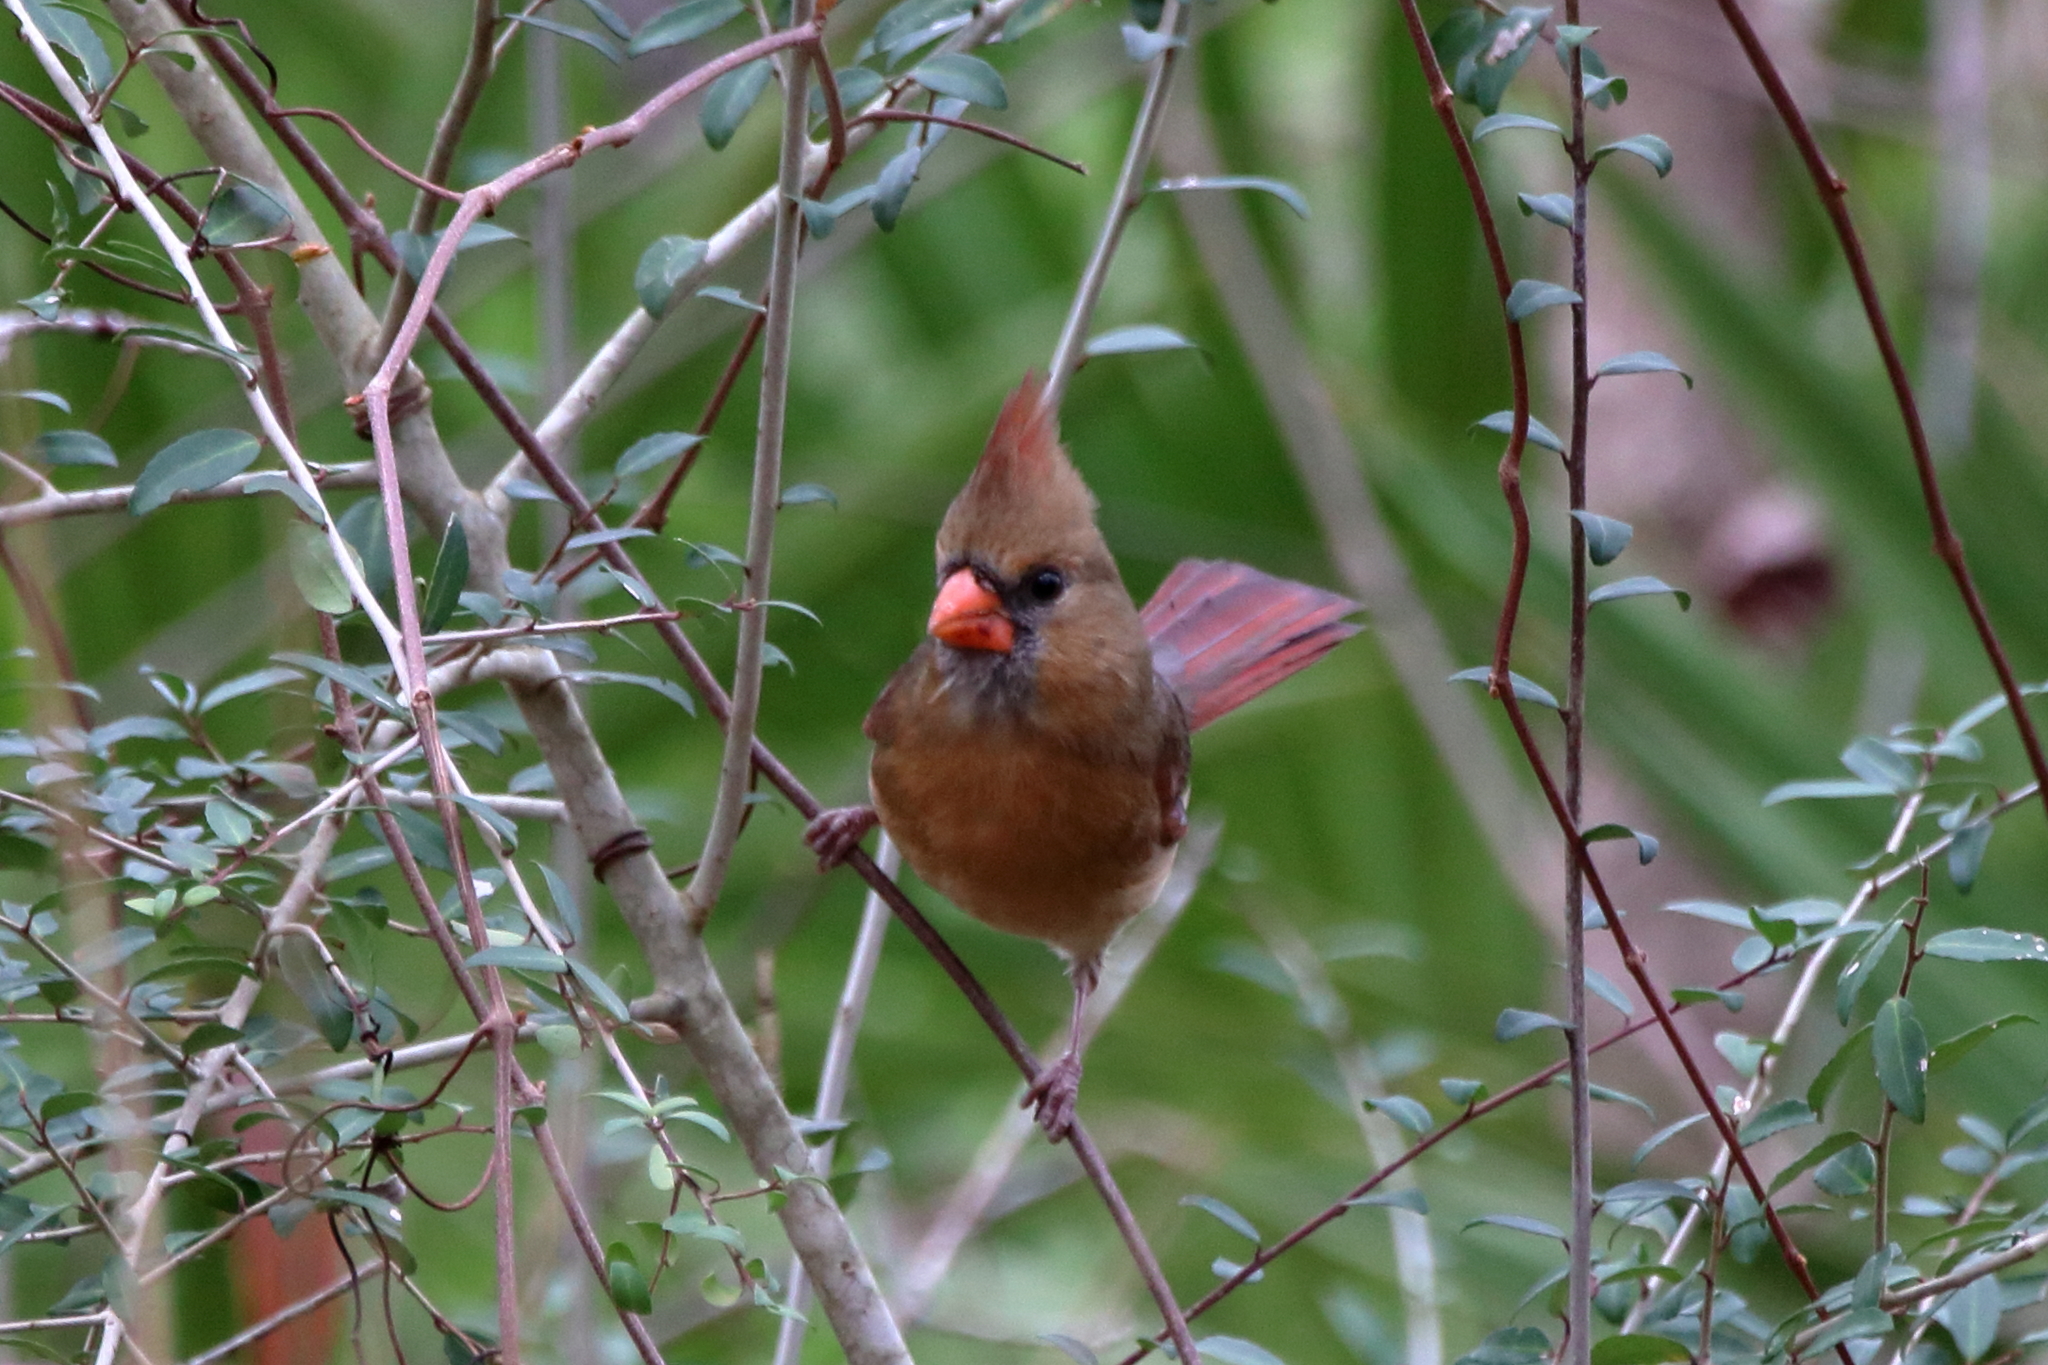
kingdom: Animalia
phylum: Chordata
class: Aves
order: Passeriformes
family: Cardinalidae
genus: Cardinalis
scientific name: Cardinalis cardinalis
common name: Northern cardinal
